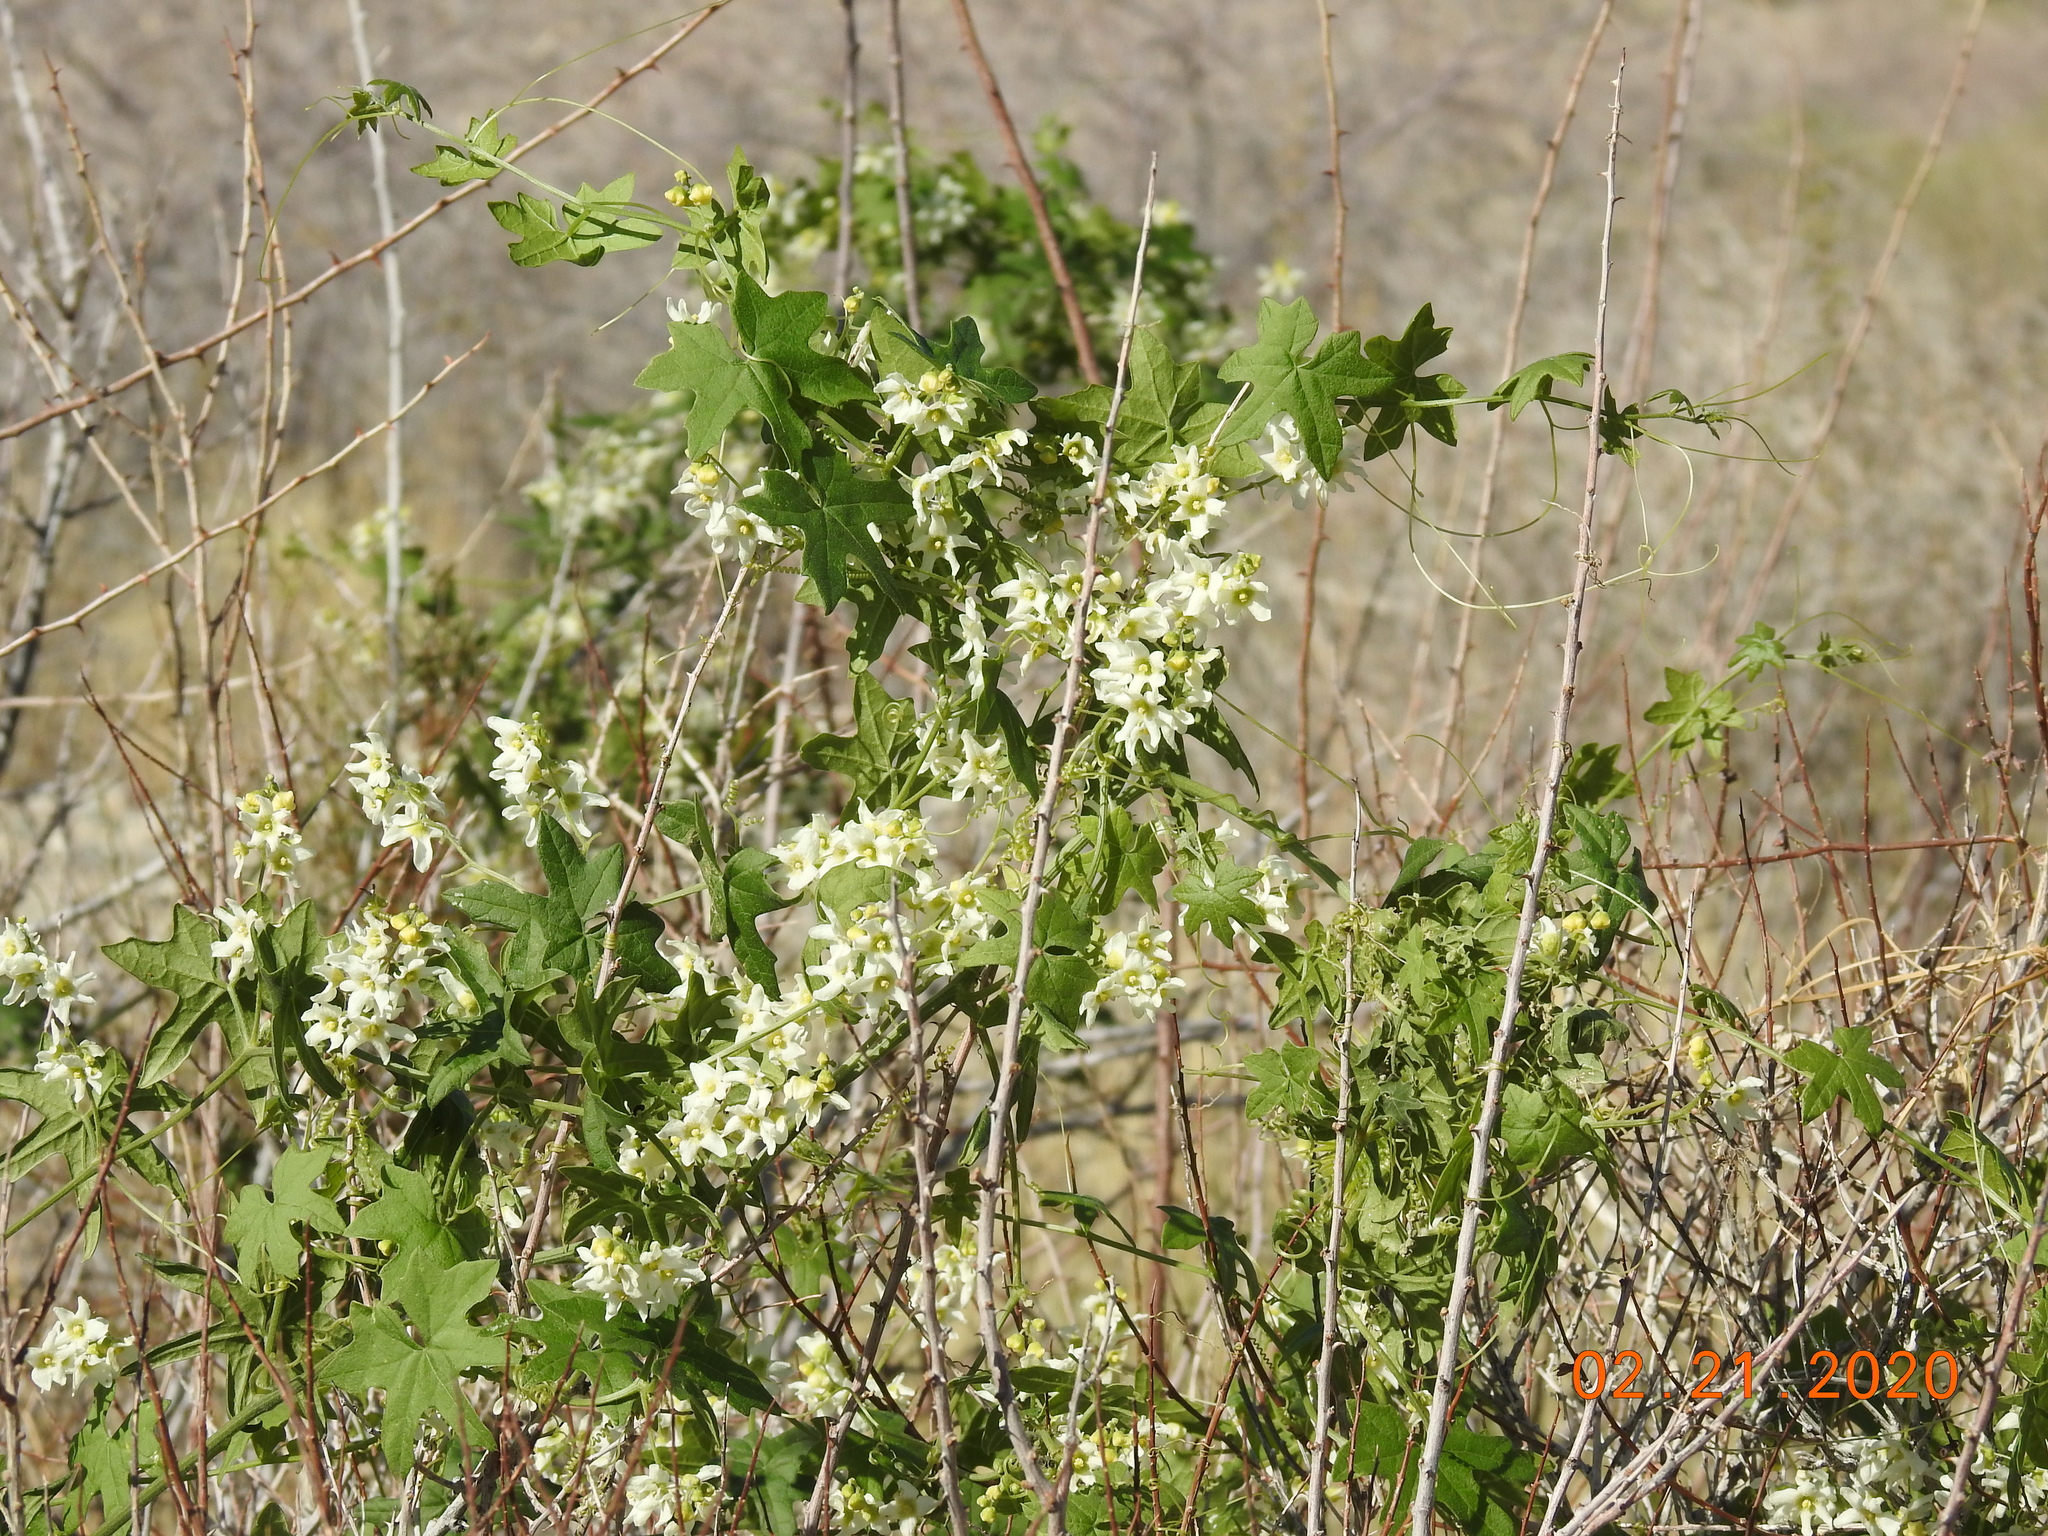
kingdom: Plantae
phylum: Tracheophyta
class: Magnoliopsida
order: Cucurbitales
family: Cucurbitaceae
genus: Marah
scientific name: Marah macrocarpa
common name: Cucamonga manroot
